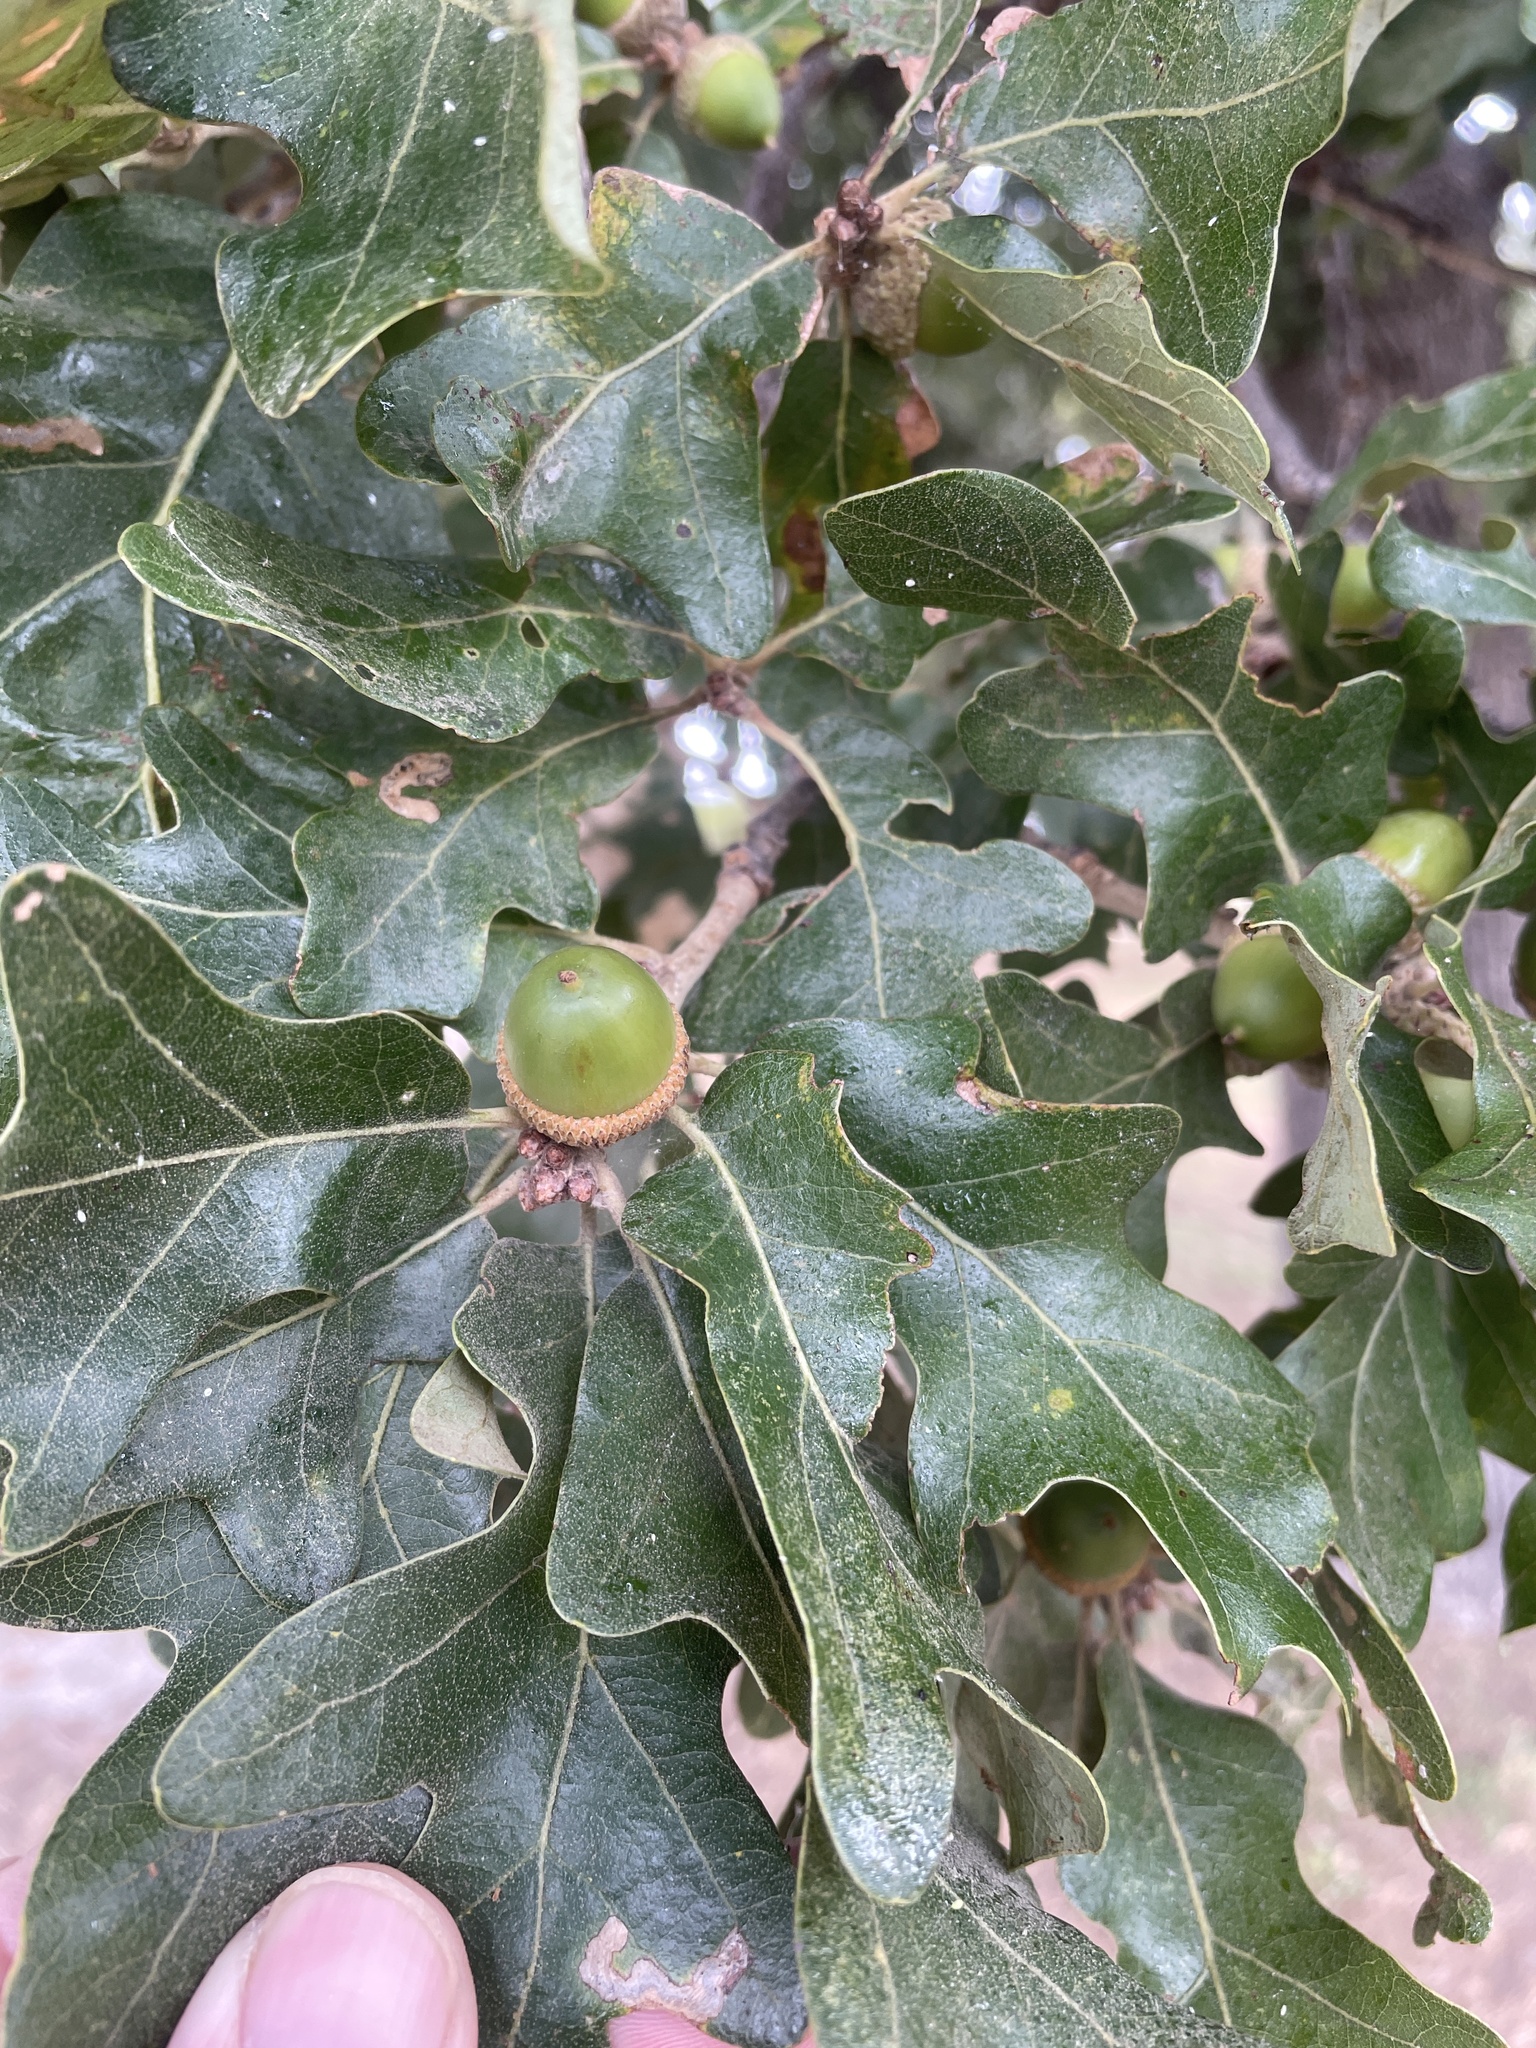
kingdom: Plantae
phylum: Tracheophyta
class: Magnoliopsida
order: Fagales
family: Fagaceae
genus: Quercus
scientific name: Quercus stellata
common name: Post oak
